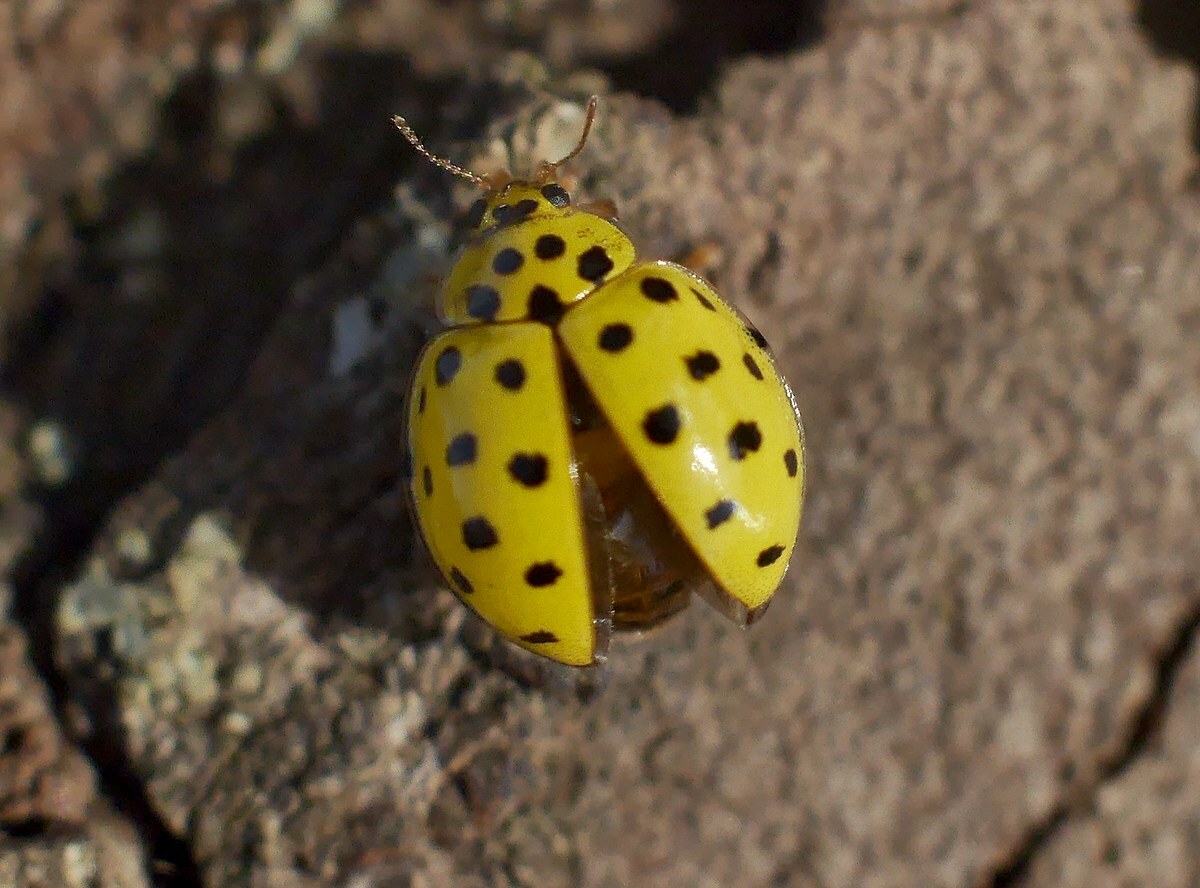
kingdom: Animalia
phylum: Arthropoda
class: Insecta
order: Coleoptera
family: Coccinellidae
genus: Psyllobora
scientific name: Psyllobora vigintiduopunctata
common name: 22-spot ladybird
